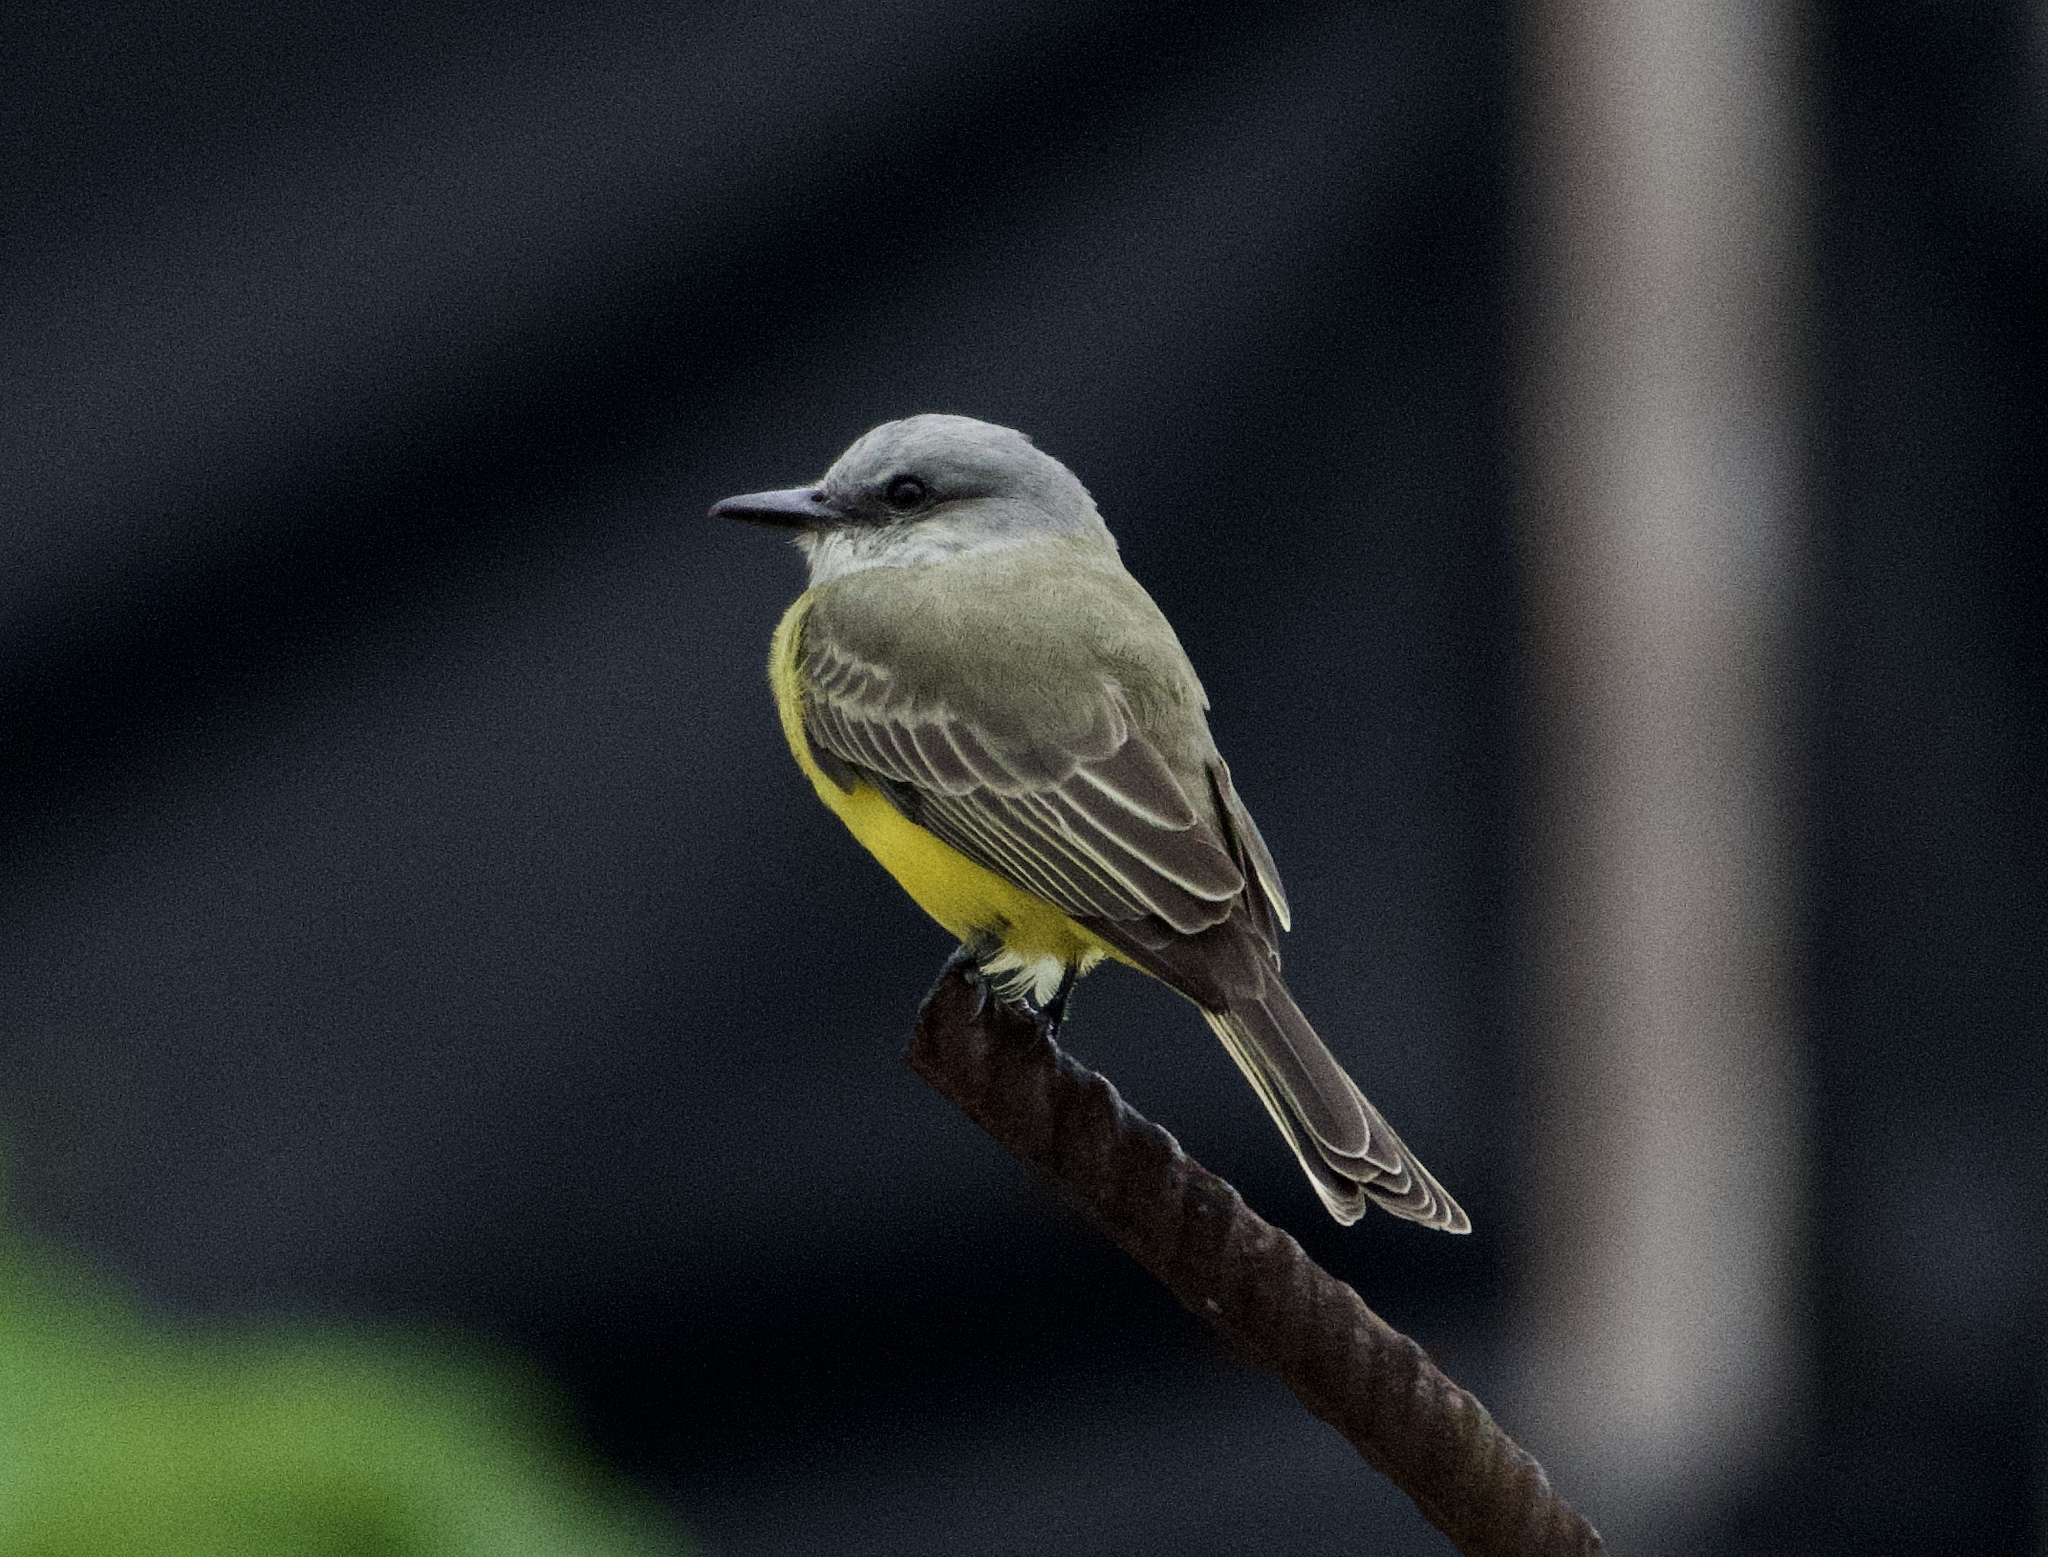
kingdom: Animalia
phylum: Chordata
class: Aves
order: Passeriformes
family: Tyrannidae
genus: Tyrannus
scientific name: Tyrannus melancholicus
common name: Tropical kingbird
